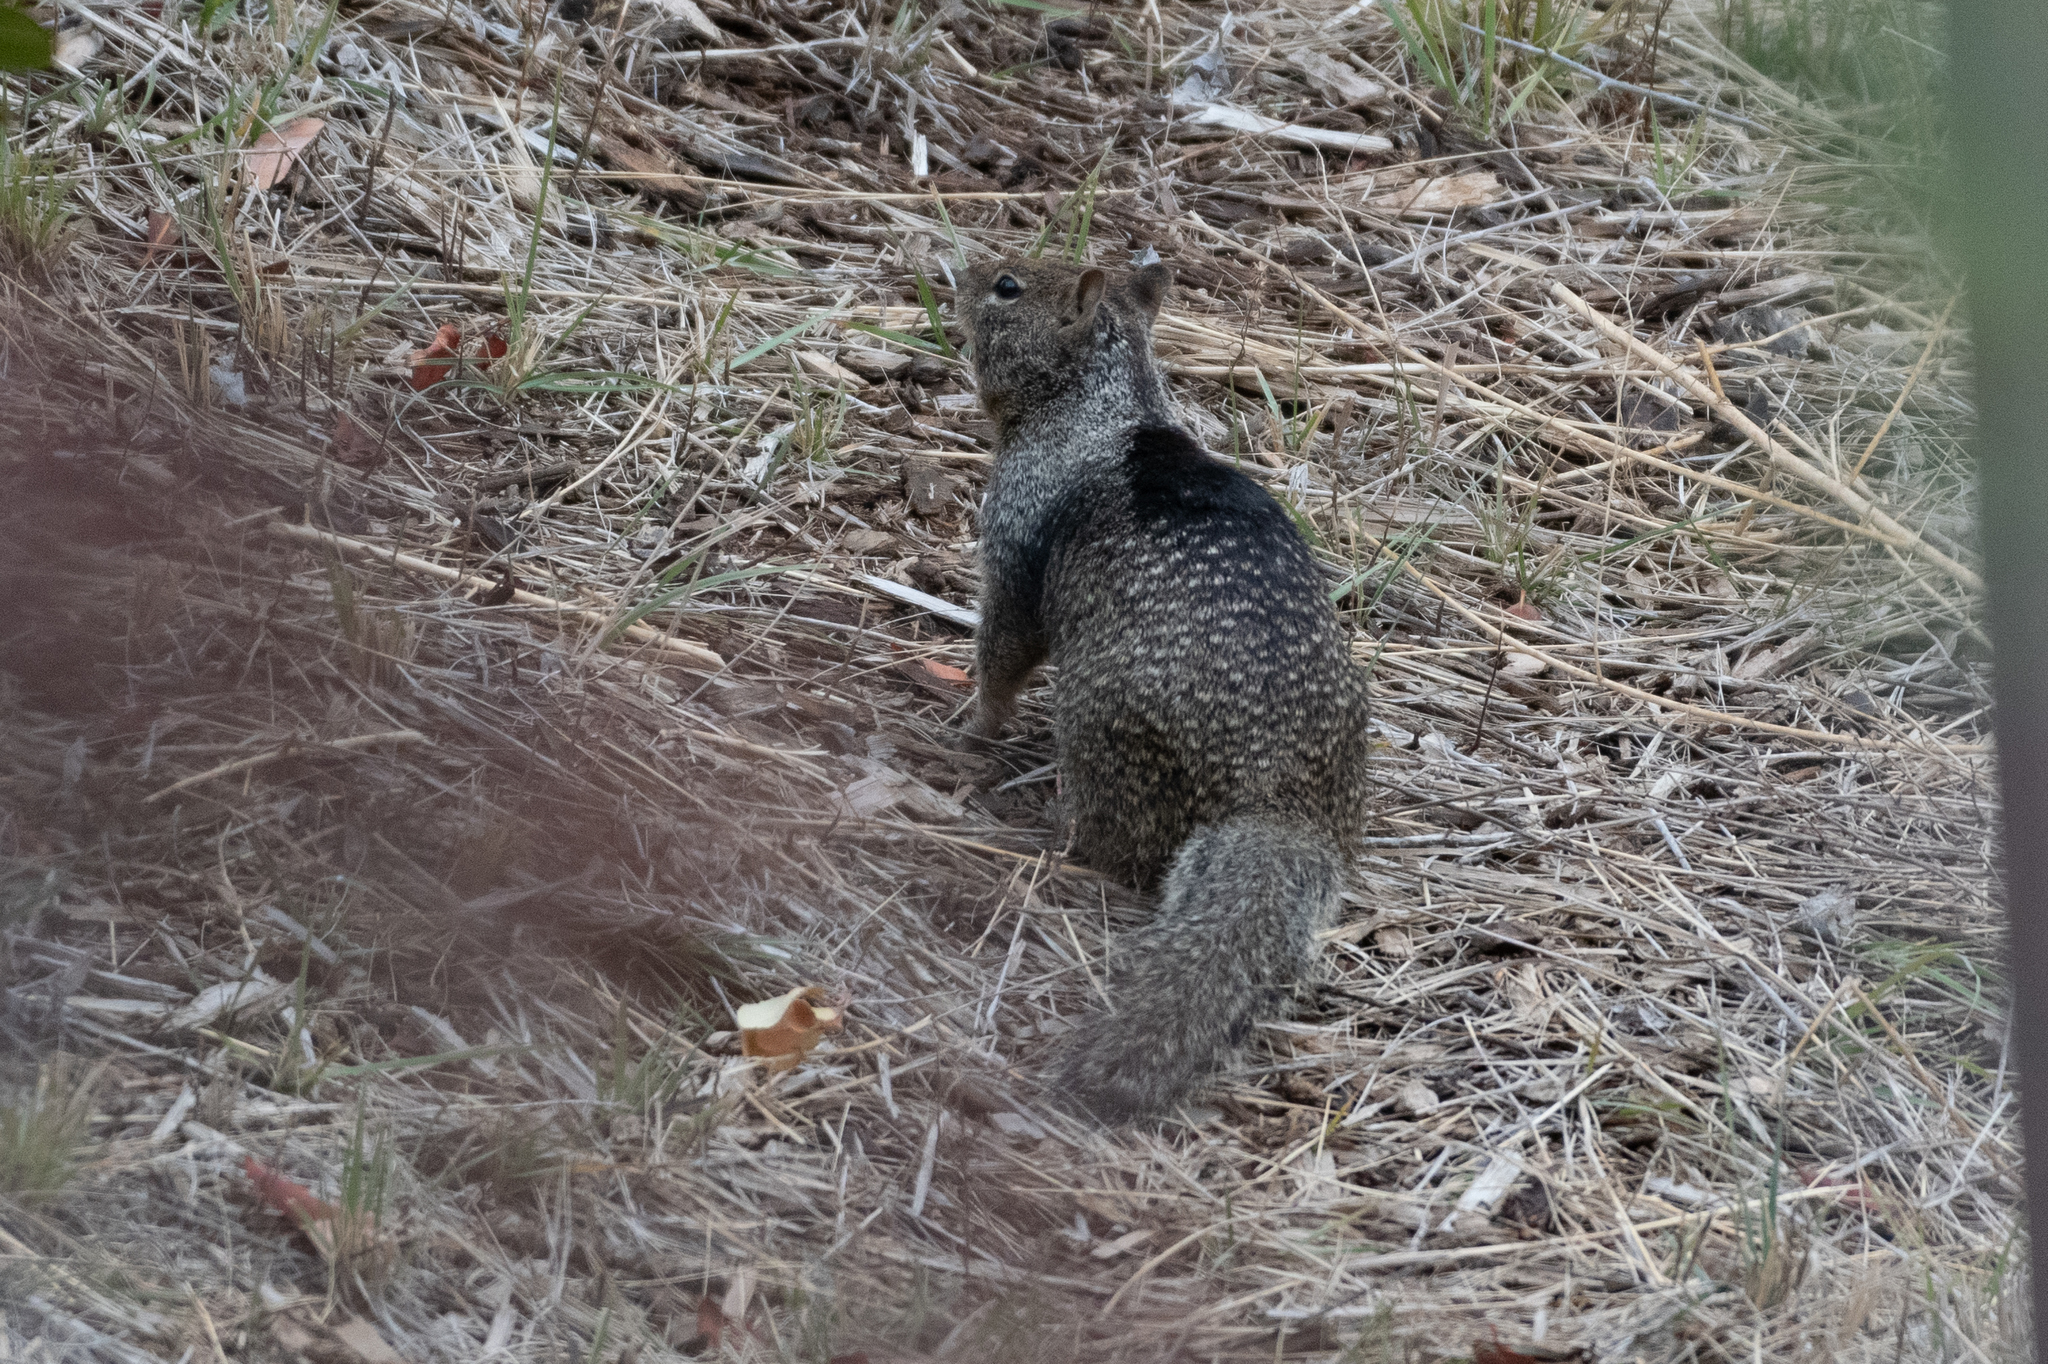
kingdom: Animalia
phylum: Chordata
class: Mammalia
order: Rodentia
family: Sciuridae
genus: Otospermophilus
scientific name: Otospermophilus beecheyi
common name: California ground squirrel
